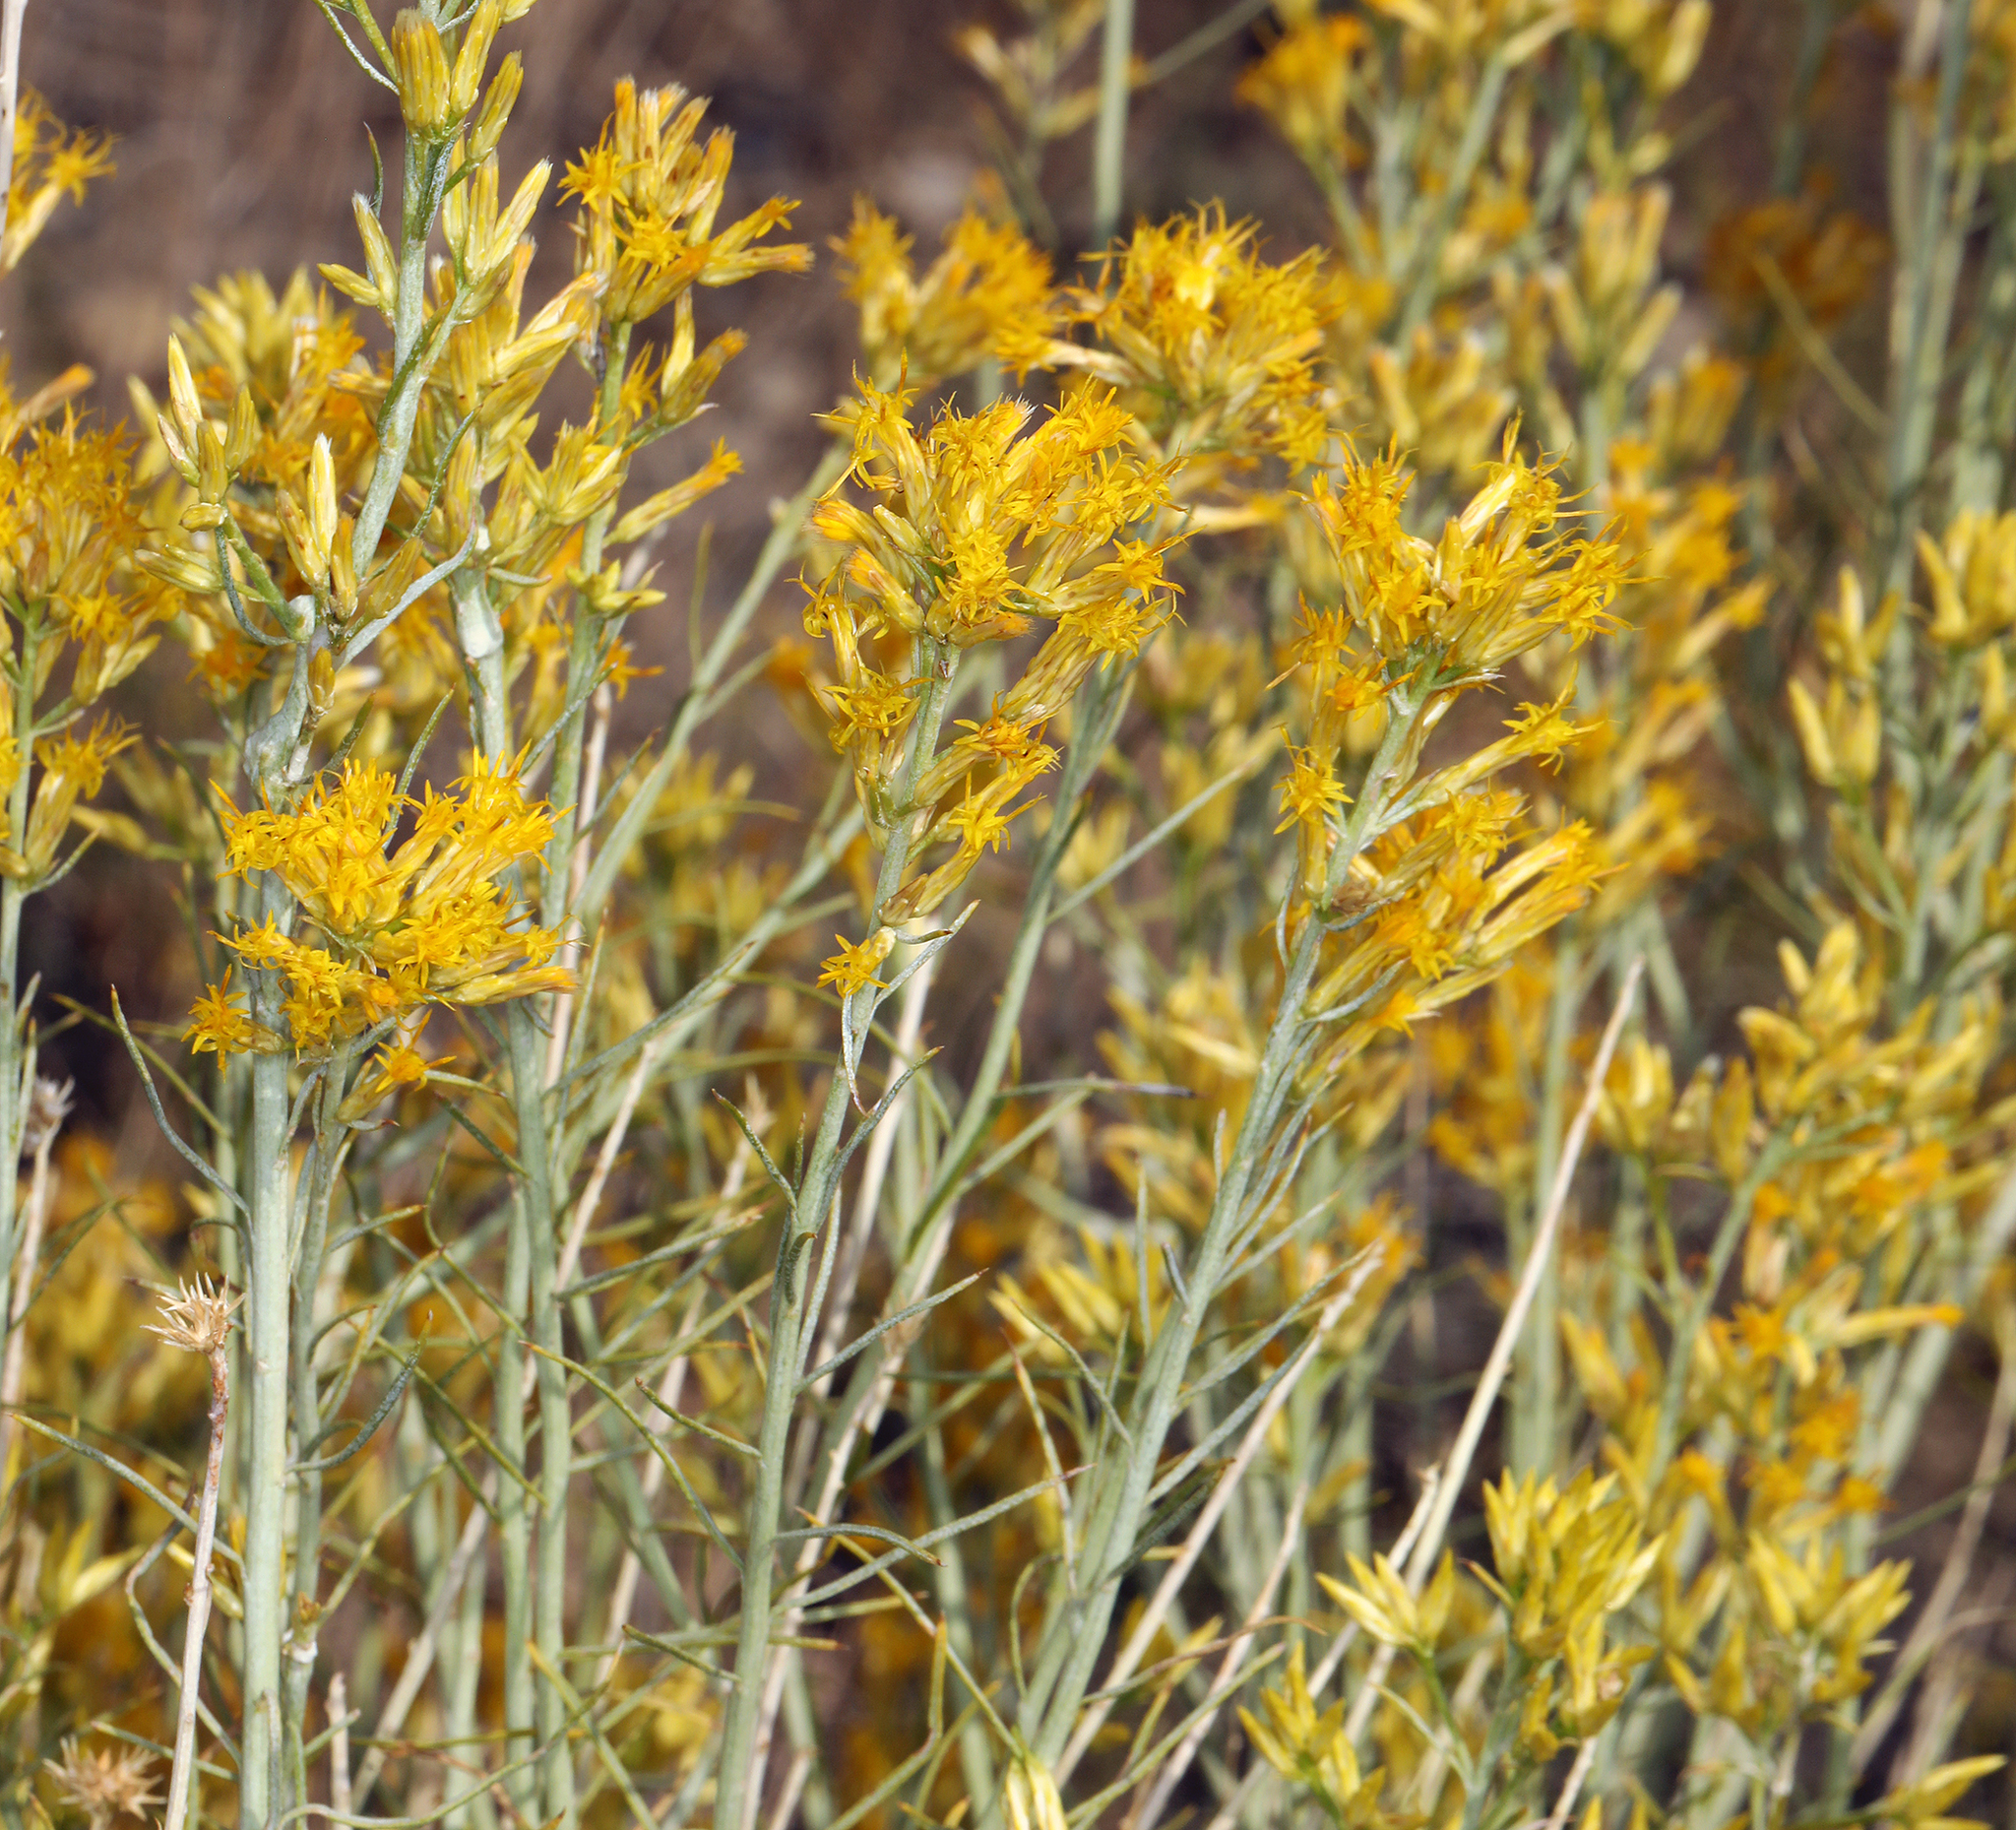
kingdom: Plantae
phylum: Tracheophyta
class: Magnoliopsida
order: Asterales
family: Asteraceae
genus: Ericameria
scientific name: Ericameria nauseosa
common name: Rubber rabbitbrush
